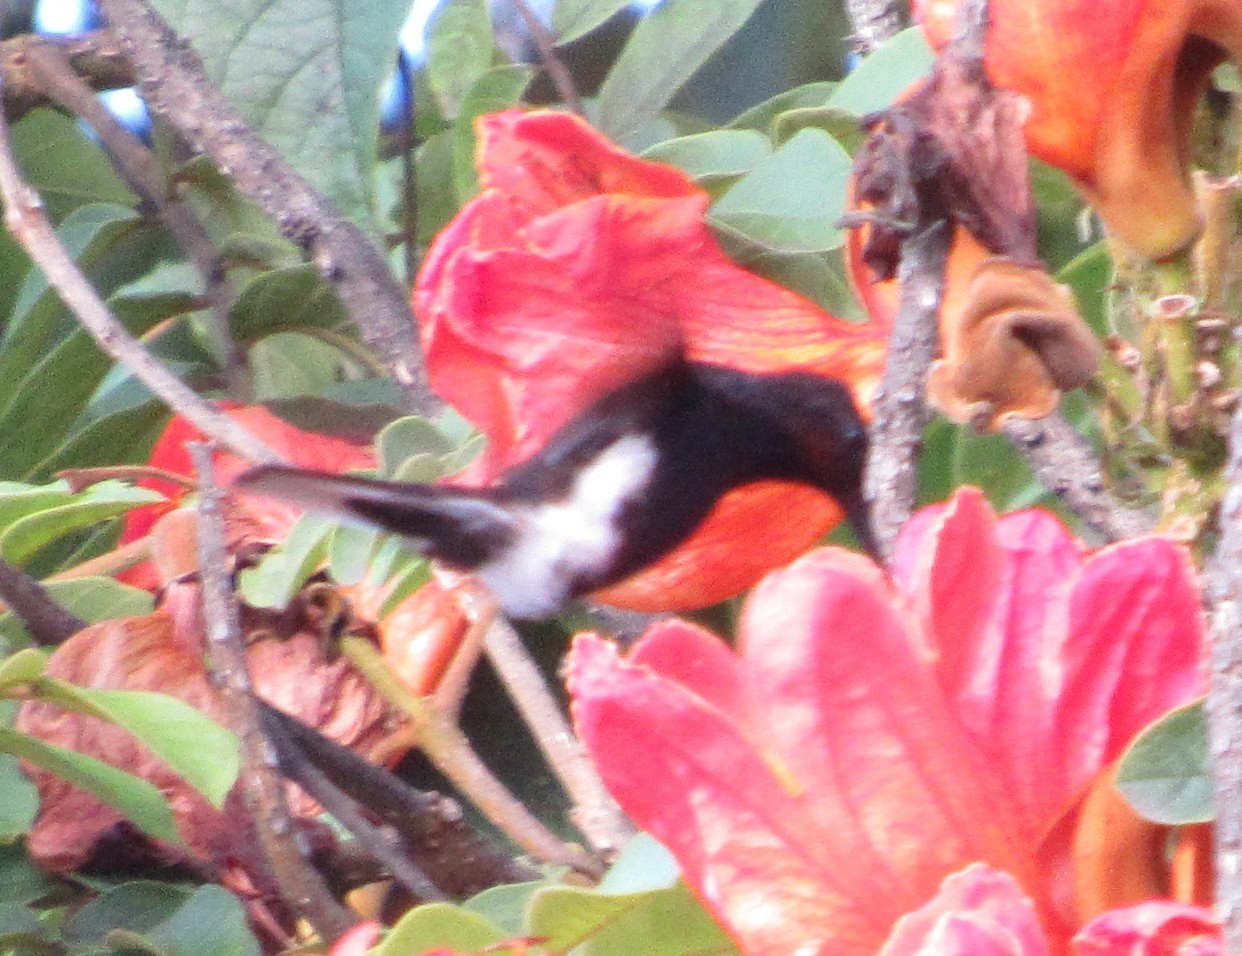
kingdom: Animalia
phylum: Chordata
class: Aves
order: Apodiformes
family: Trochilidae
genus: Florisuga
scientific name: Florisuga fusca
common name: Black jacobin
